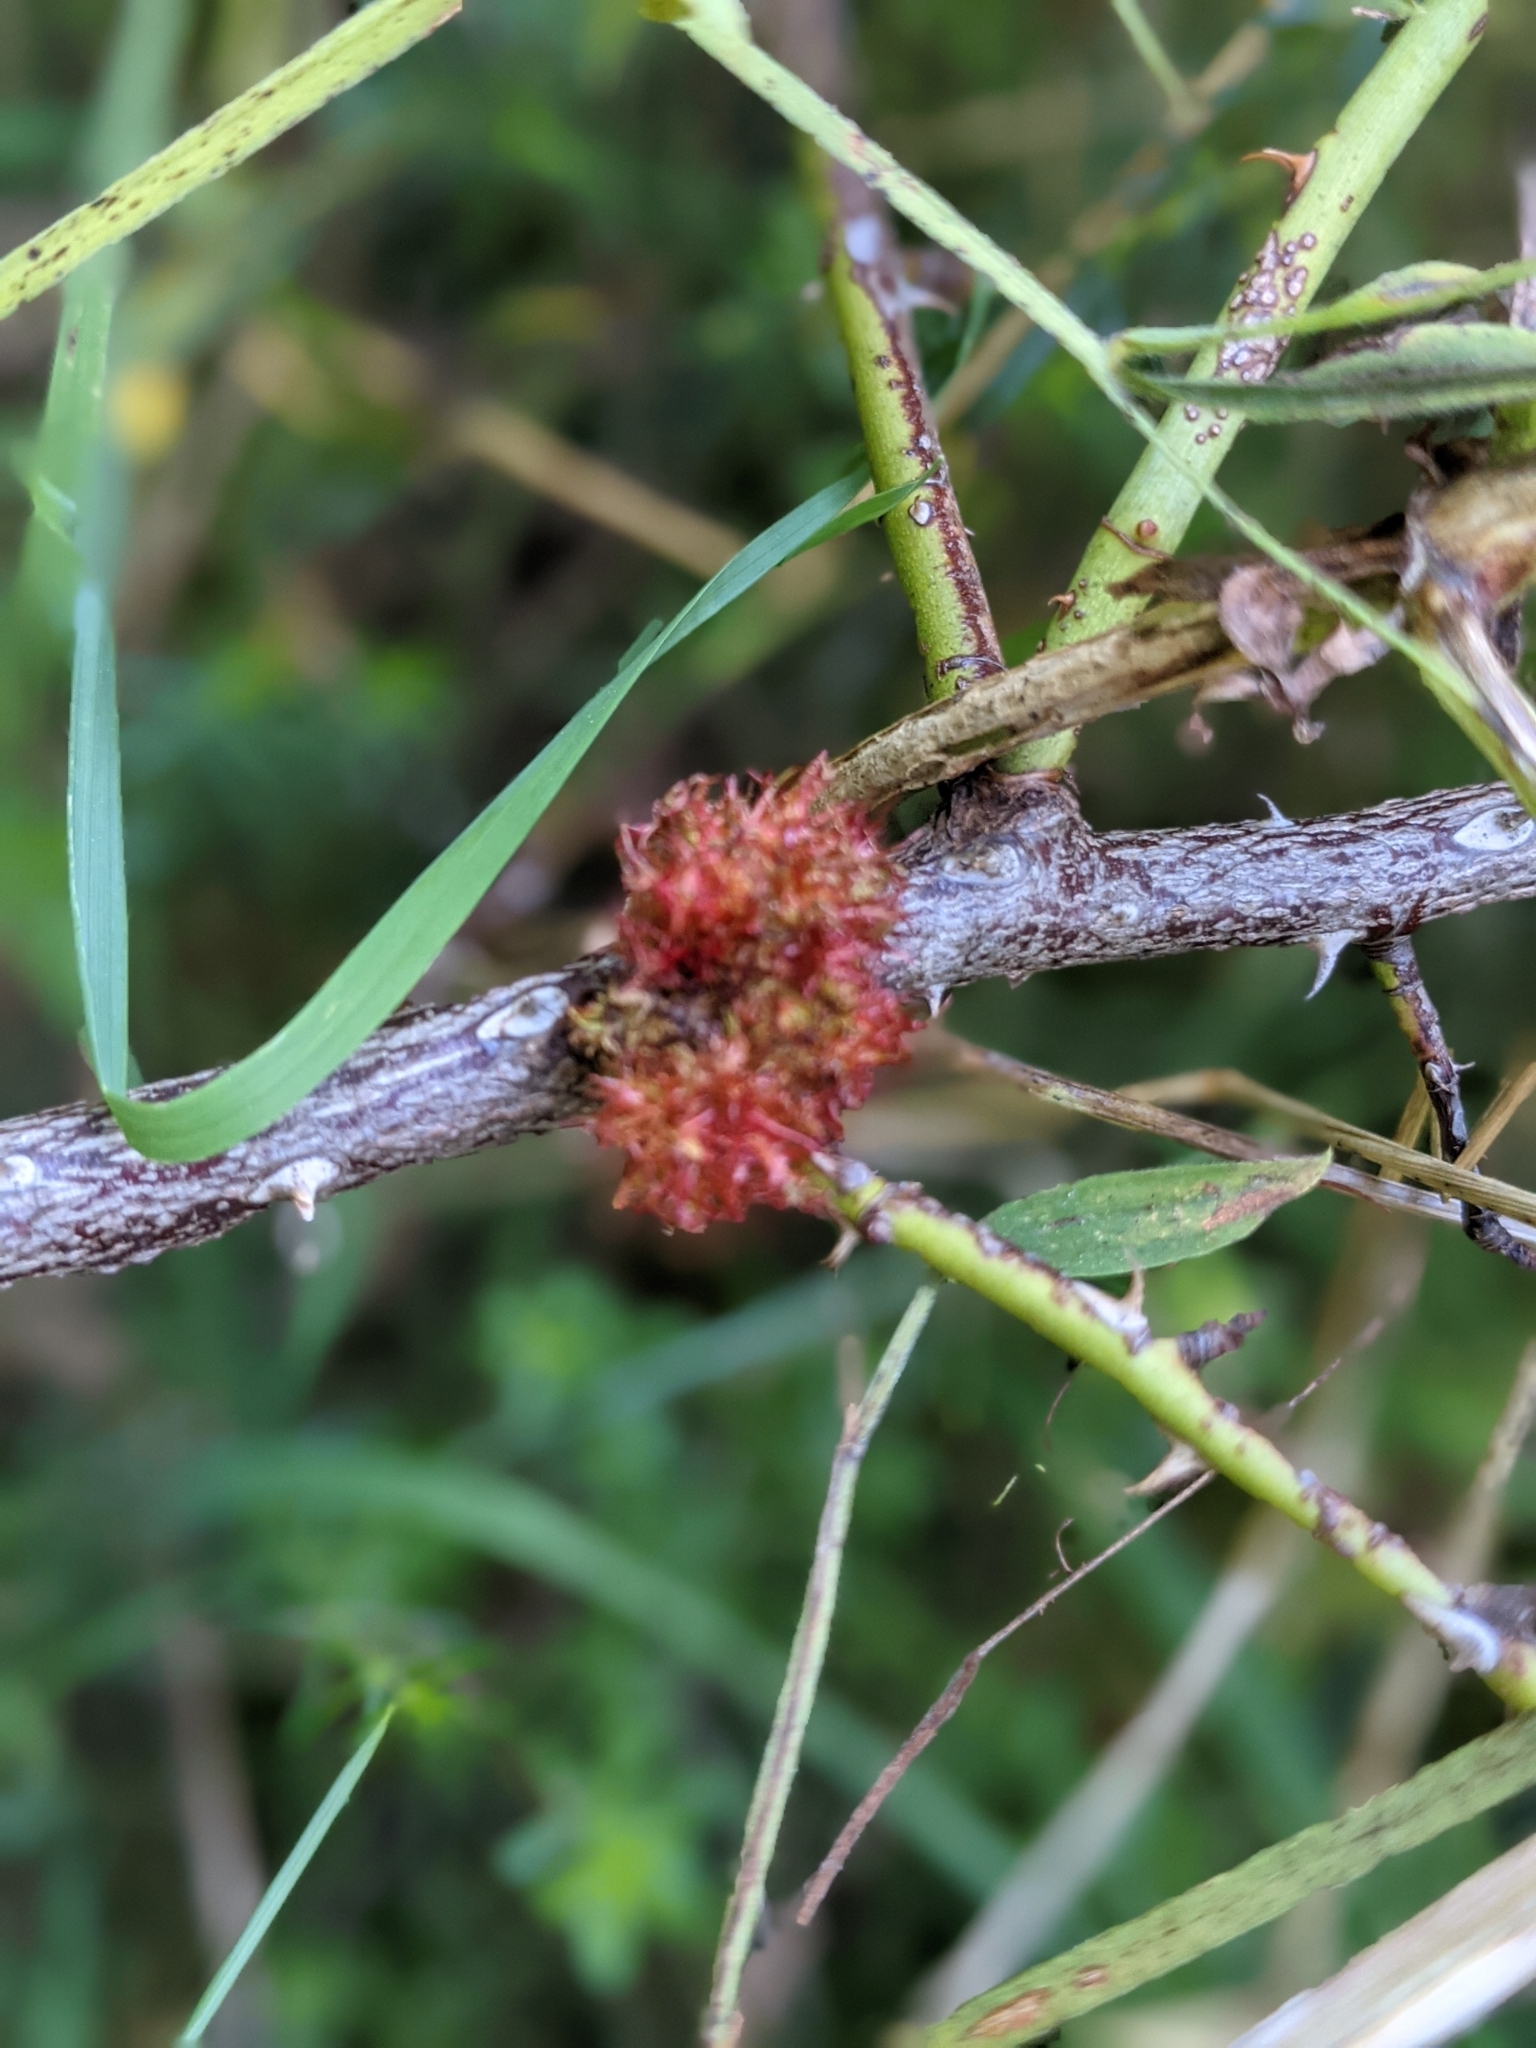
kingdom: Animalia
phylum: Arthropoda
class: Insecta
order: Hymenoptera
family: Cynipidae
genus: Diplolepis
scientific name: Diplolepis rosae
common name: Bedeguar gall
